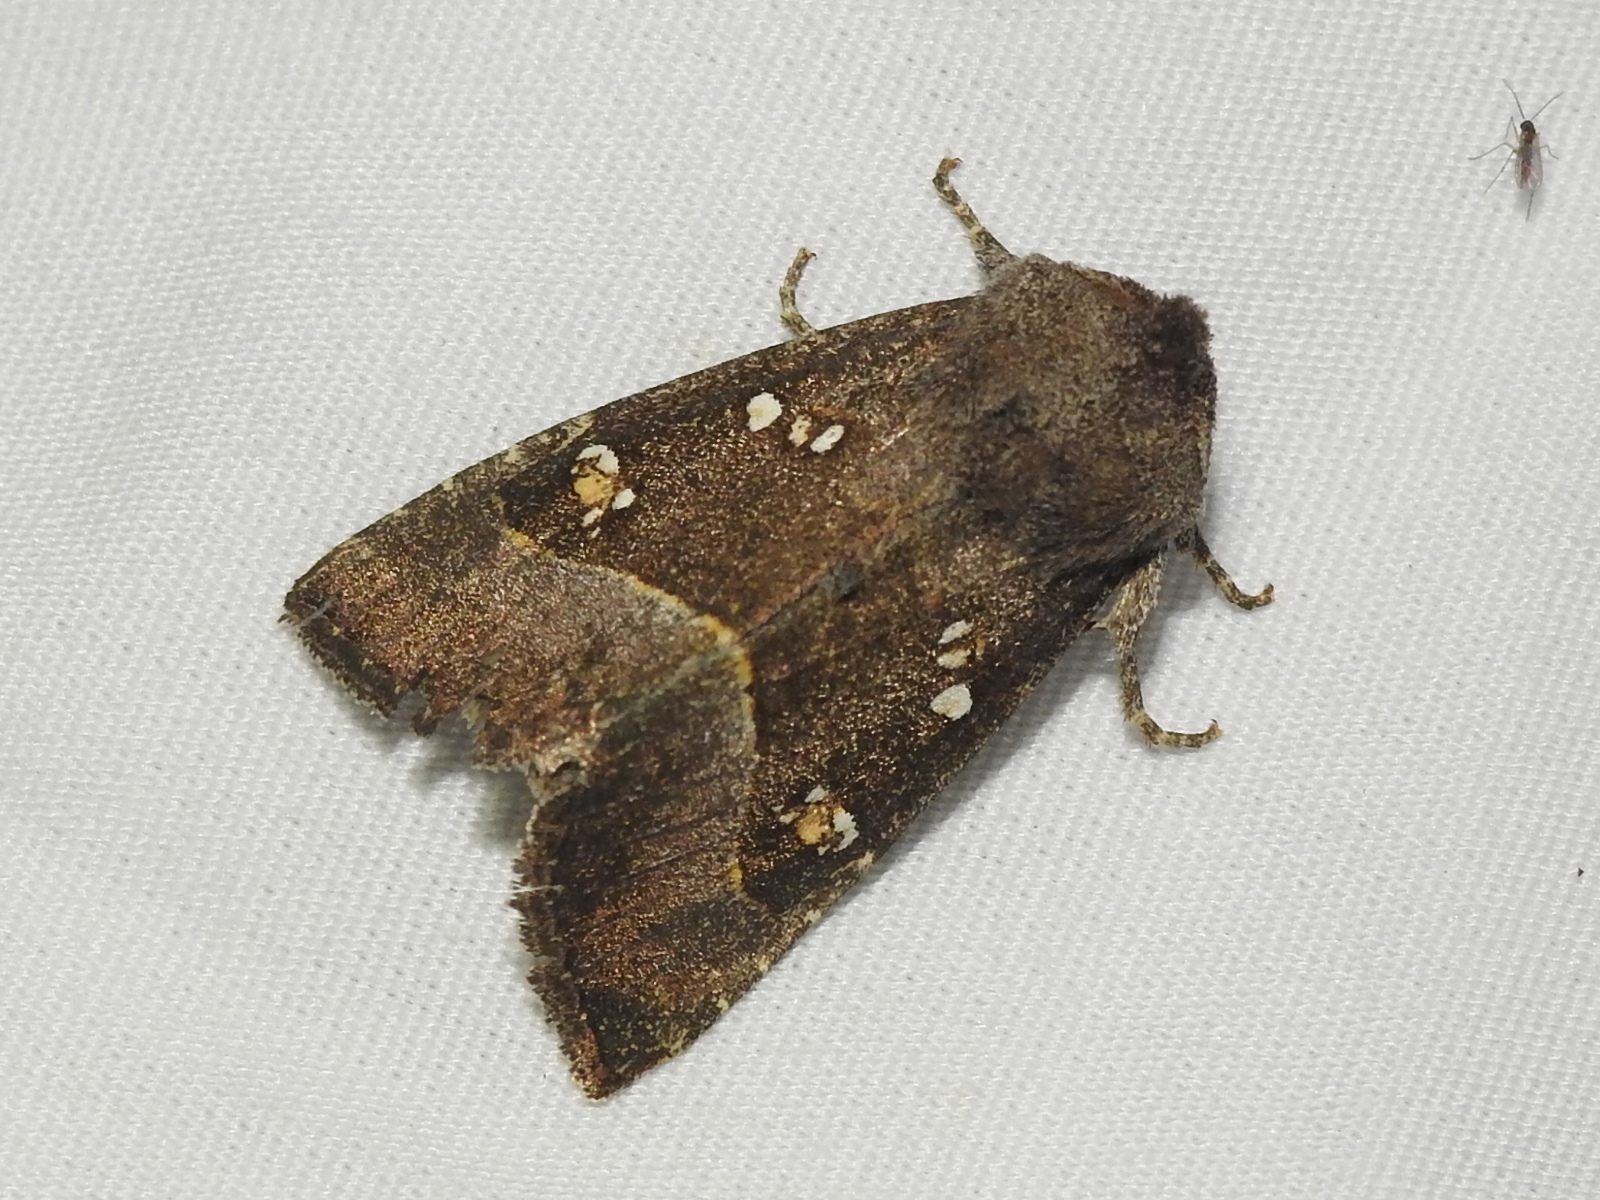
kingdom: Animalia
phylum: Arthropoda
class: Insecta
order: Lepidoptera
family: Noctuidae
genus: Papaipema
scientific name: Papaipema nebris
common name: Stalk borer
